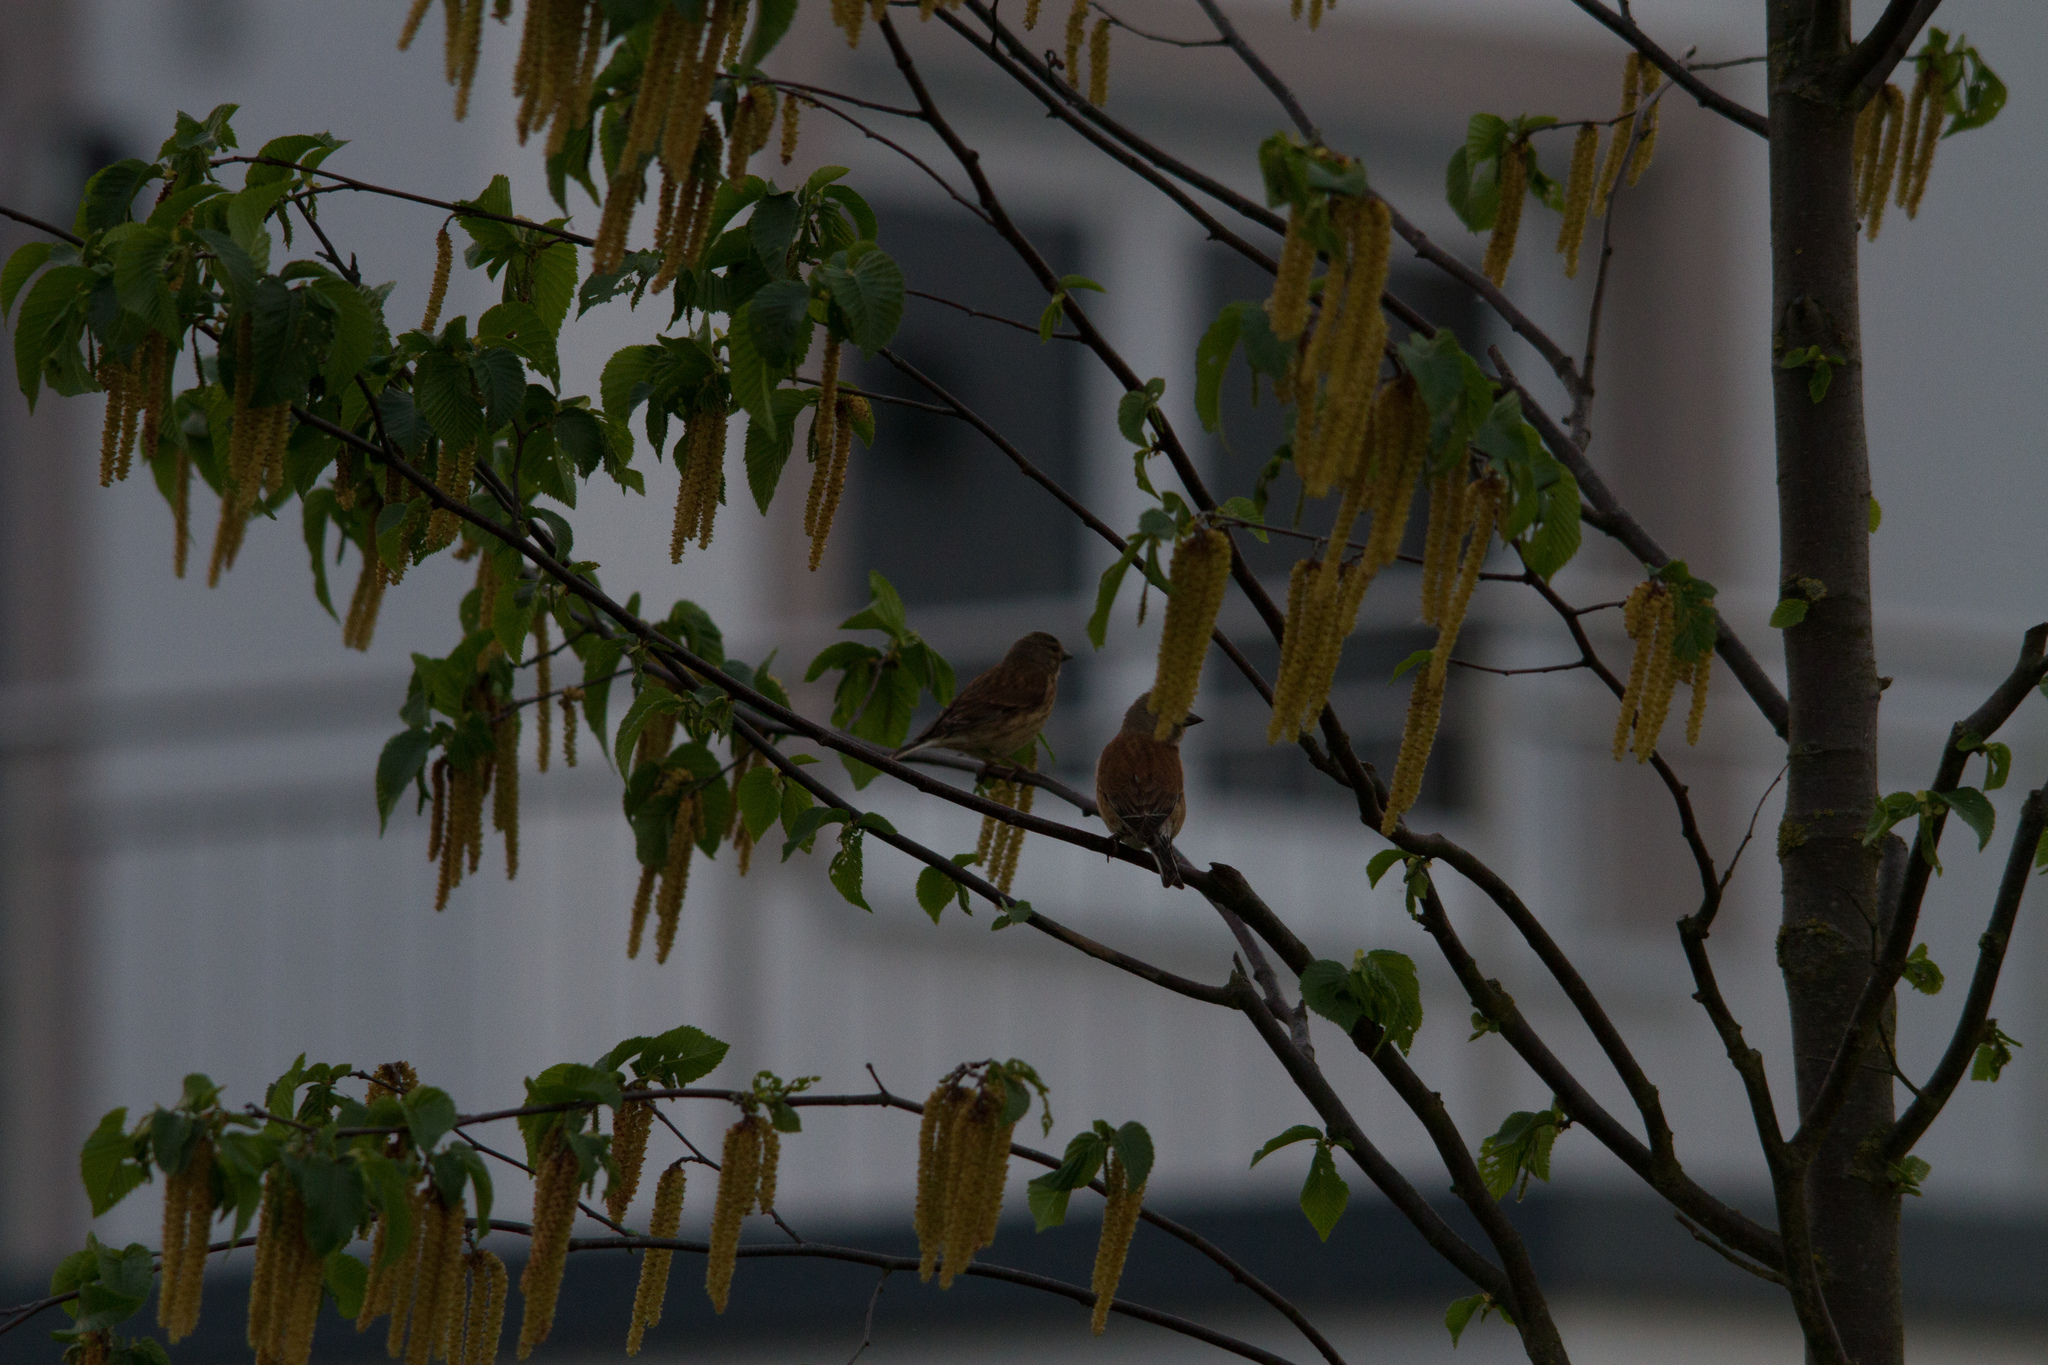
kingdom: Animalia
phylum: Chordata
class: Aves
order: Passeriformes
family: Fringillidae
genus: Linaria
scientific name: Linaria cannabina
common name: Common linnet
